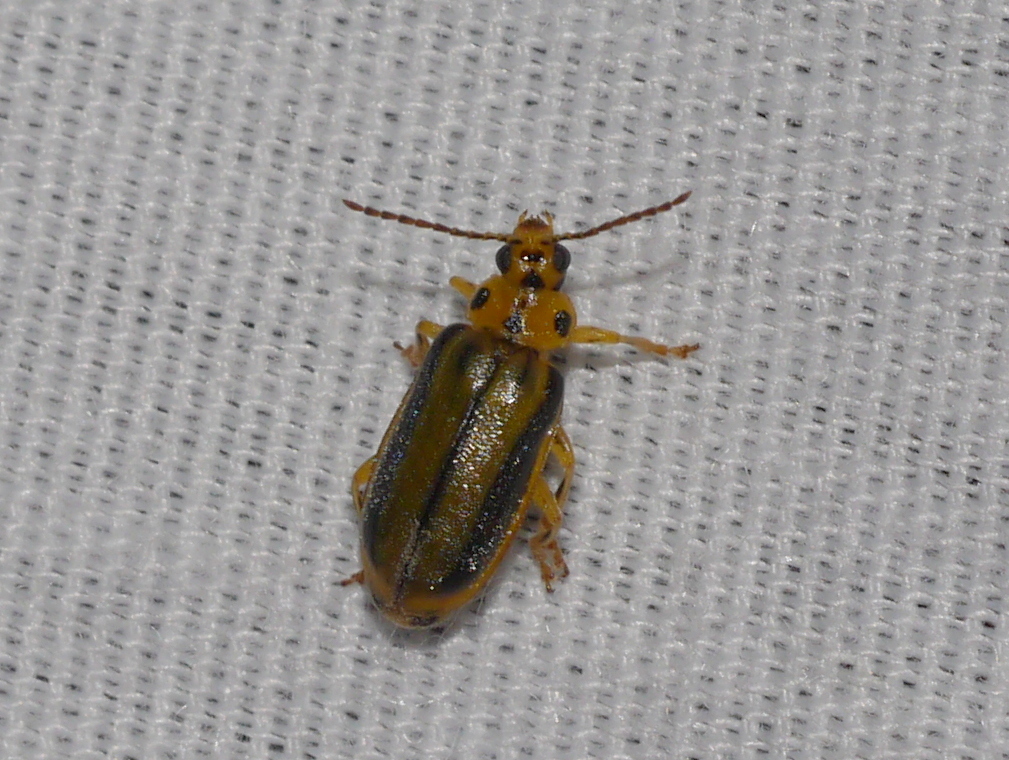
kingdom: Animalia
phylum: Arthropoda
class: Insecta
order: Coleoptera
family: Chrysomelidae
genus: Xanthogaleruca
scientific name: Xanthogaleruca luteola
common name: Elm leaf beetle
